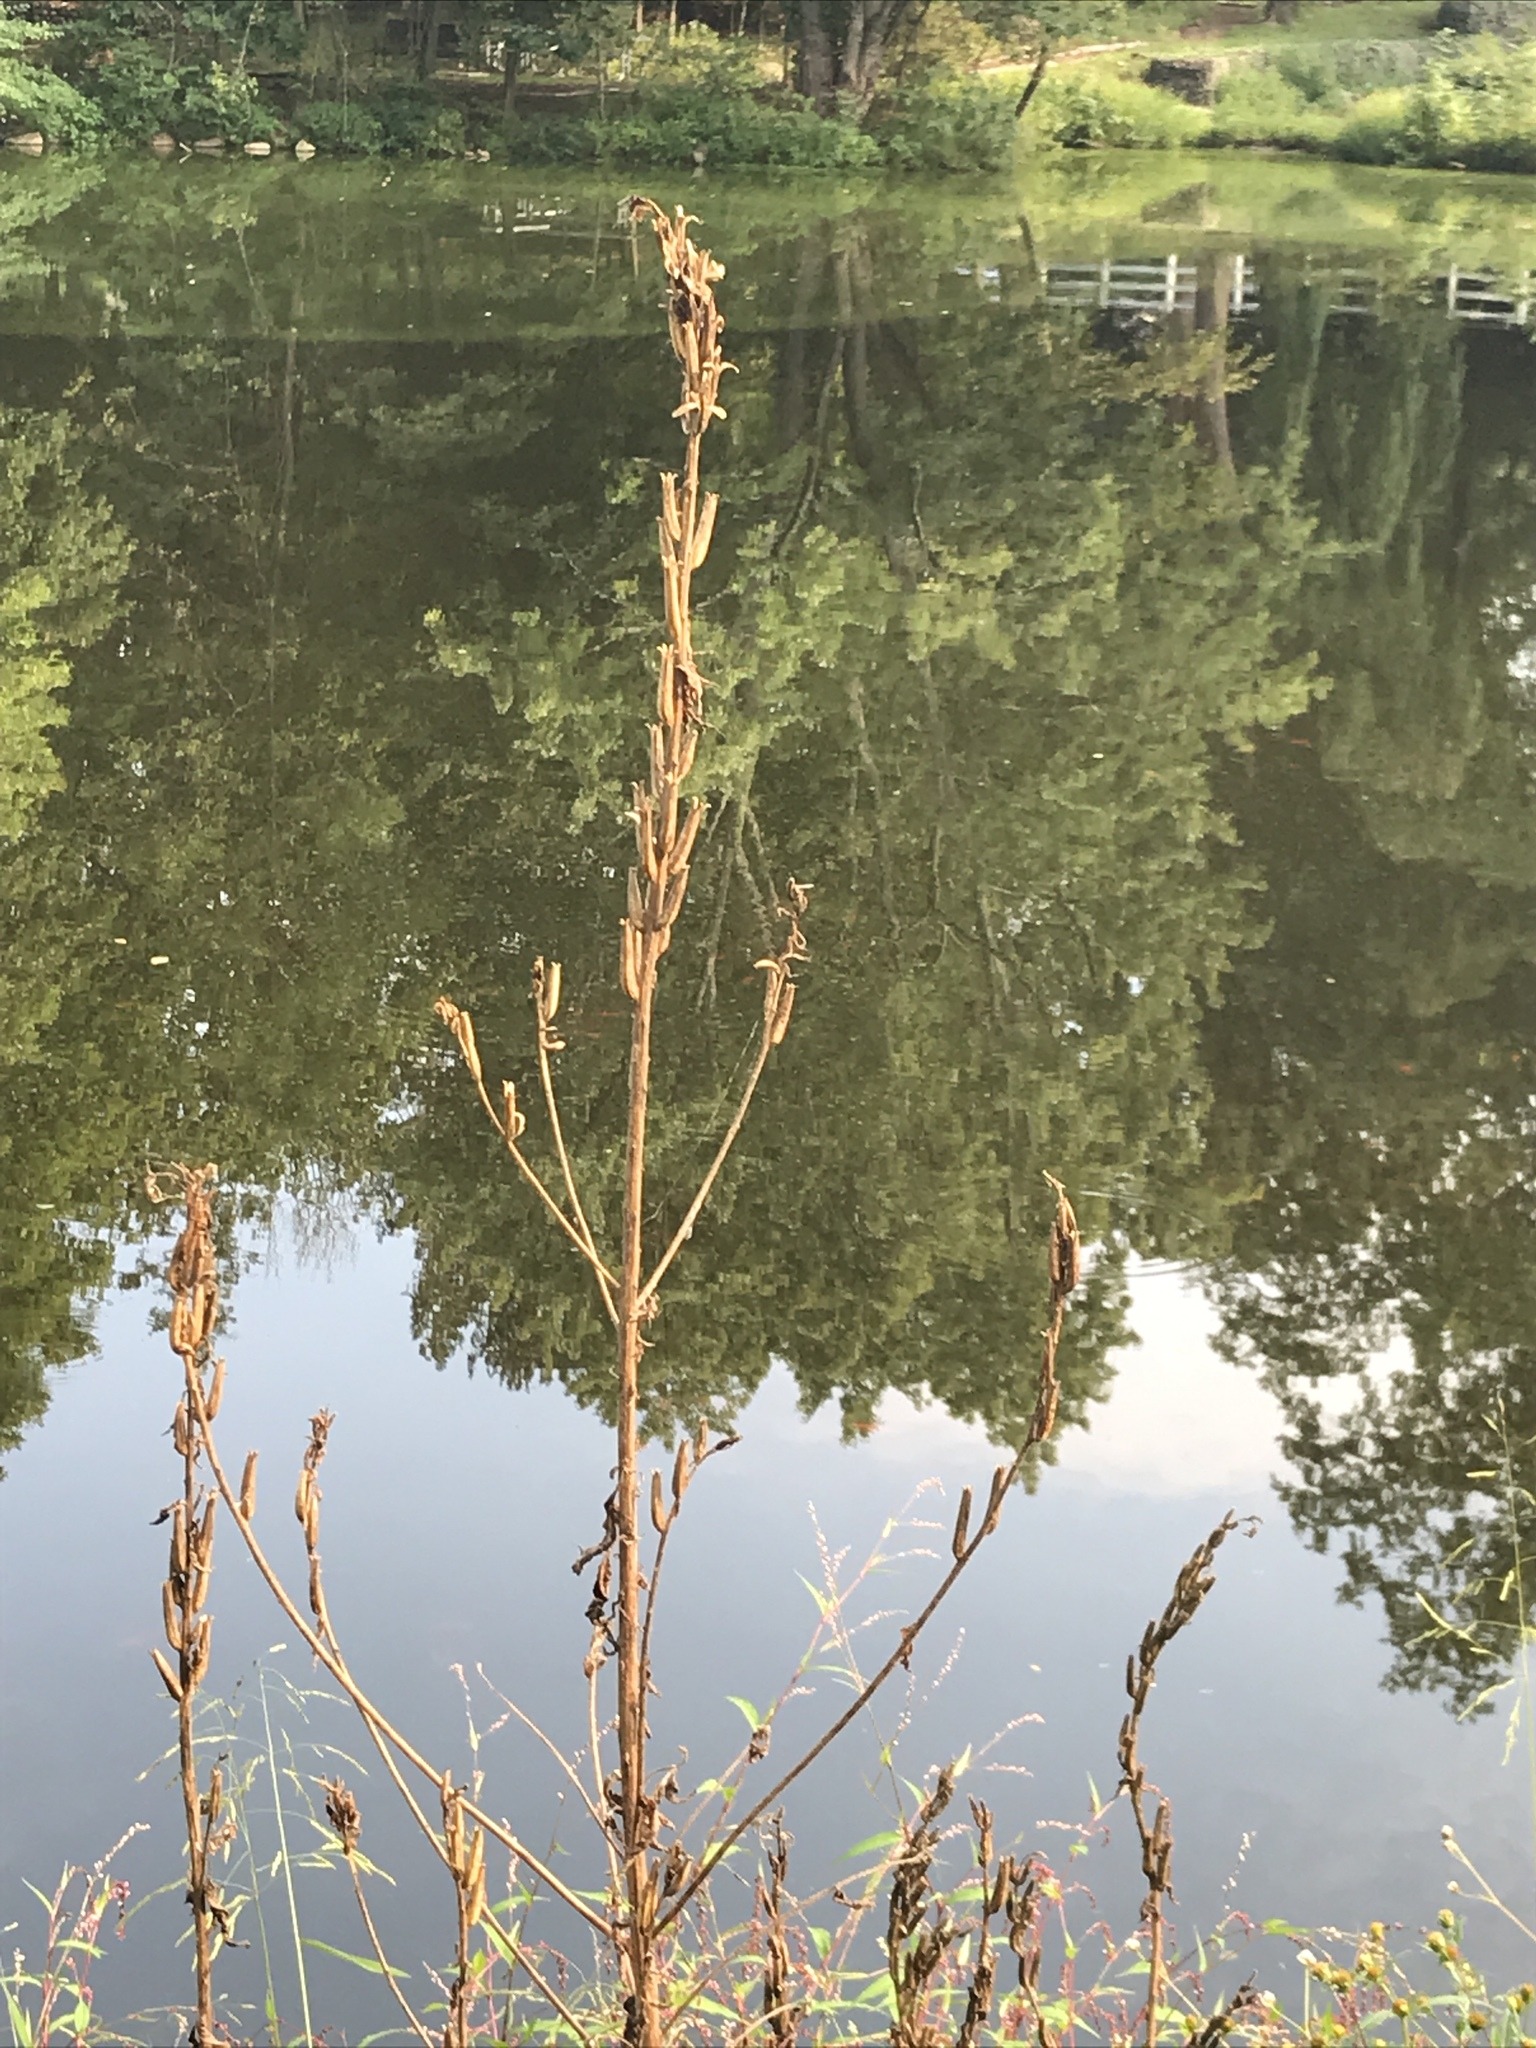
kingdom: Plantae
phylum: Tracheophyta
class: Magnoliopsida
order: Myrtales
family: Onagraceae
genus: Oenothera
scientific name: Oenothera biennis
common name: Common evening-primrose
